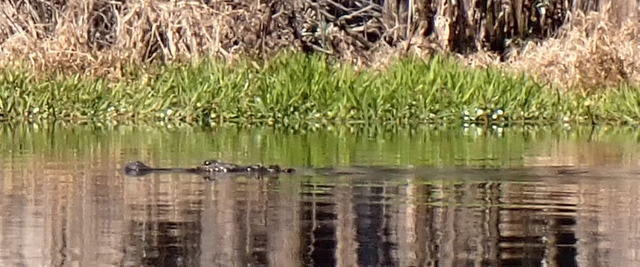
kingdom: Animalia
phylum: Chordata
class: Crocodylia
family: Alligatoridae
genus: Alligator
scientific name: Alligator mississippiensis
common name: American alligator
